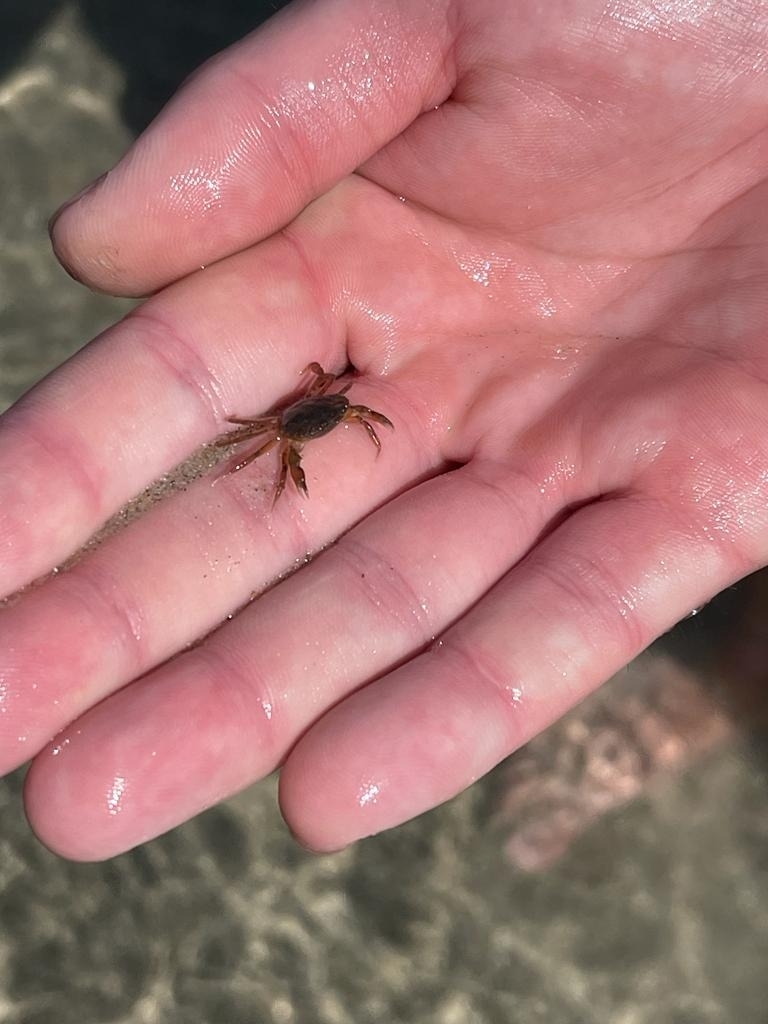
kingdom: Animalia
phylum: Arthropoda
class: Malacostraca
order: Decapoda
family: Carcinidae
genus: Carcinus
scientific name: Carcinus maenas
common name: European green crab
